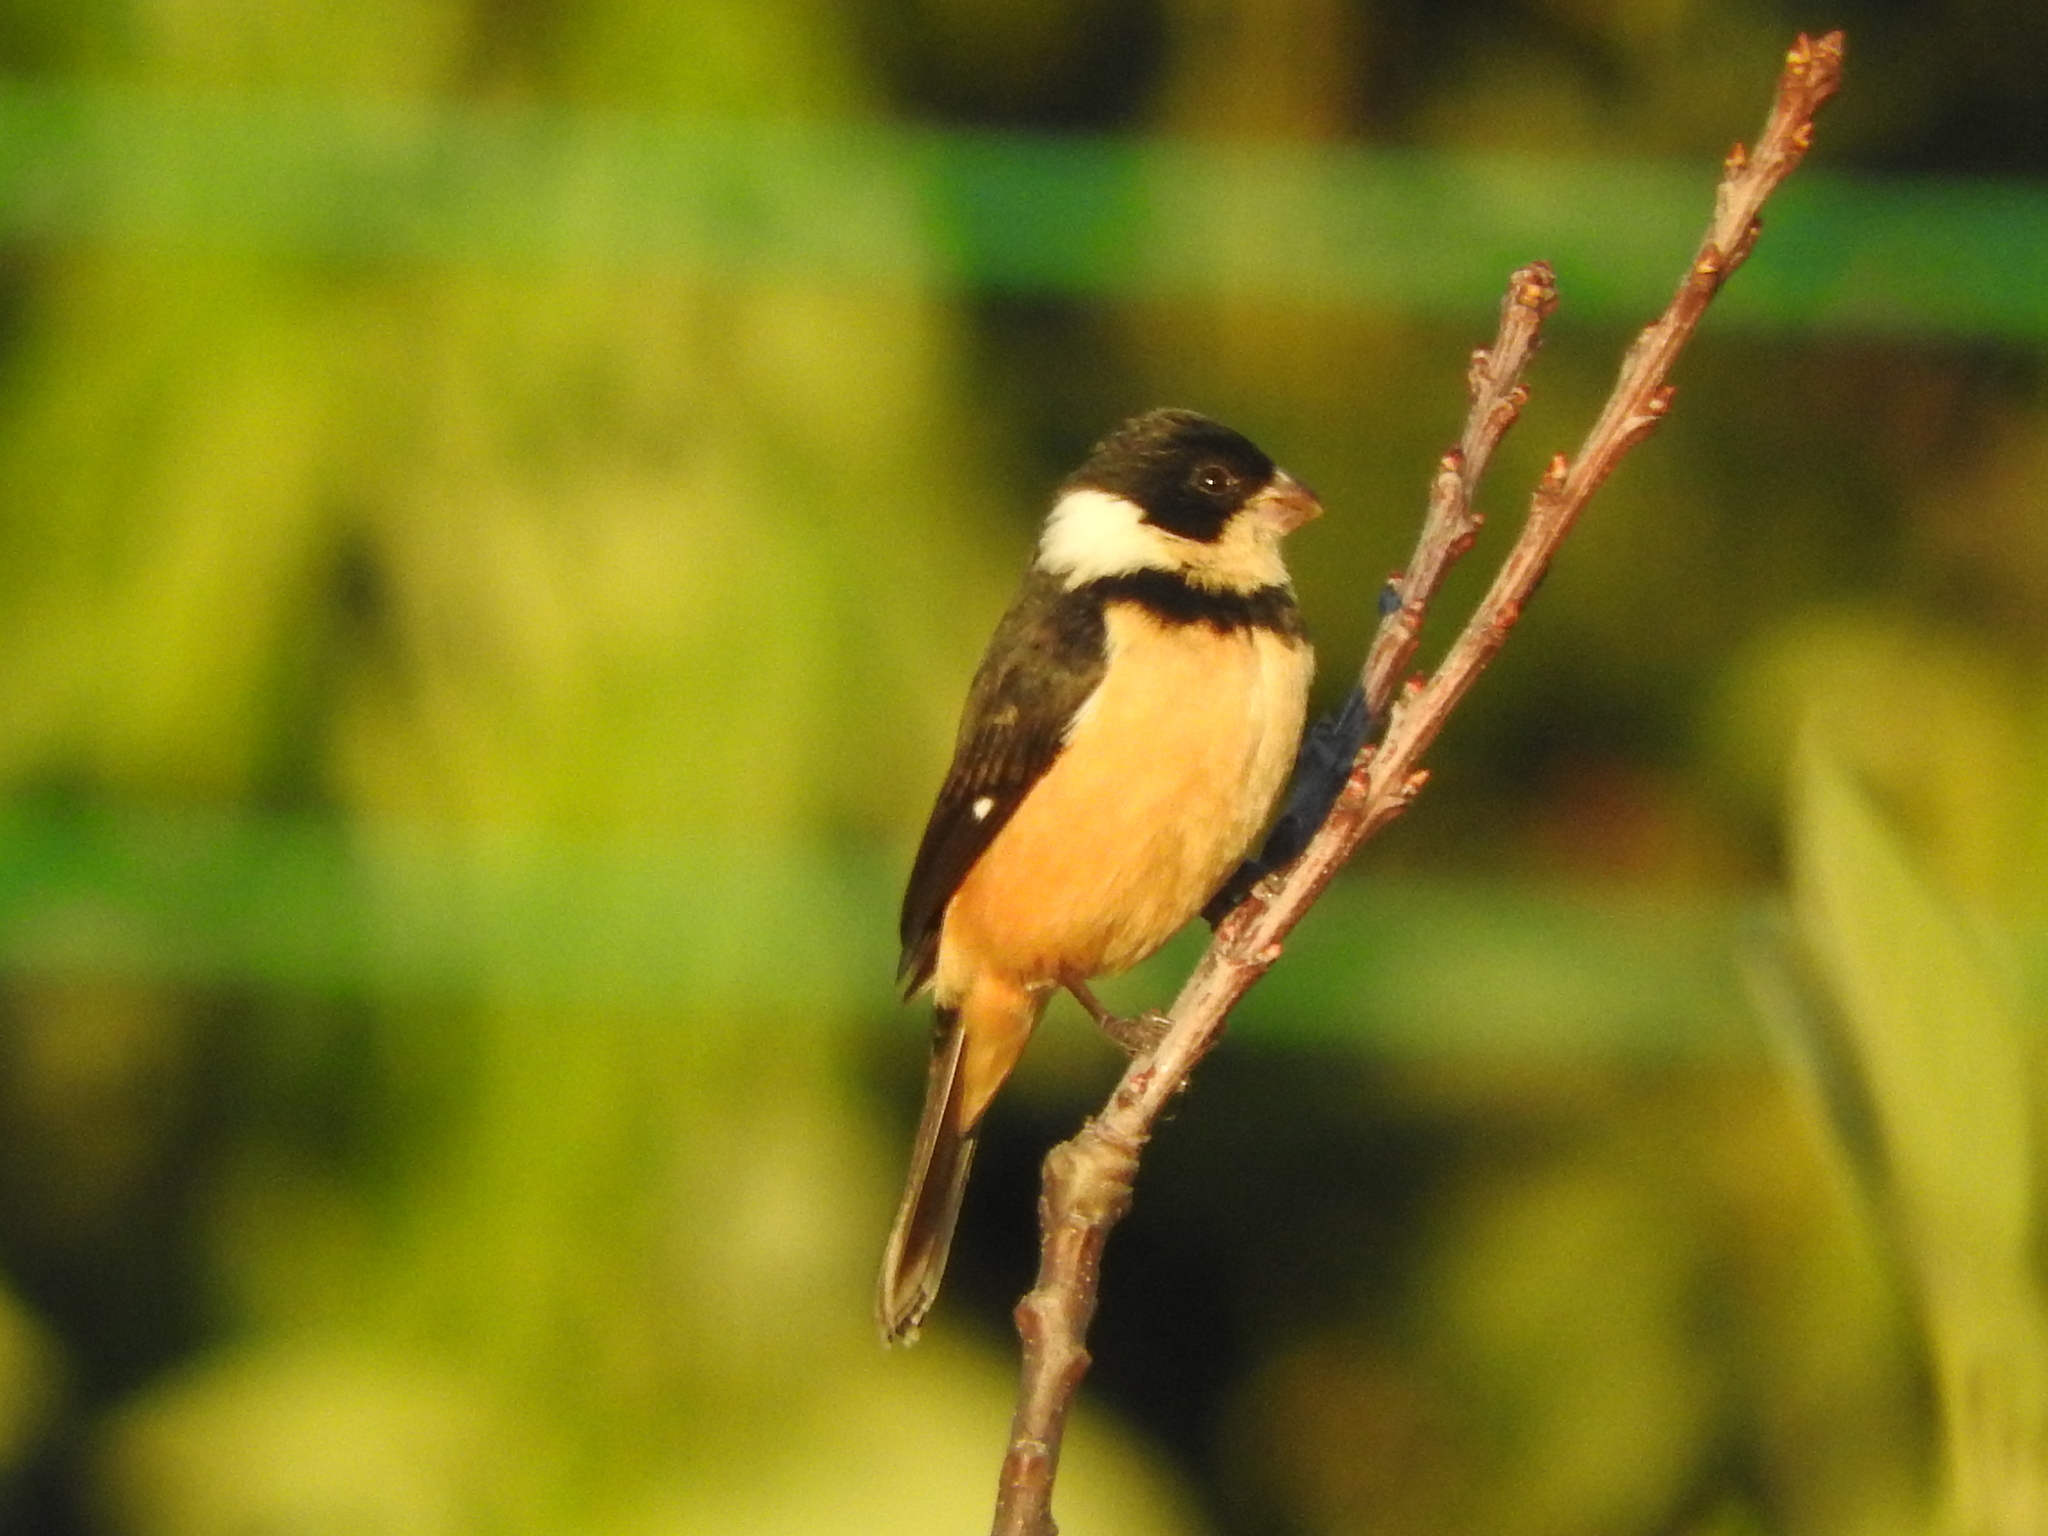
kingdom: Animalia
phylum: Chordata
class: Aves
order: Passeriformes
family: Thraupidae
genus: Sporophila
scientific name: Sporophila torqueola
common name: White-collared seedeater
